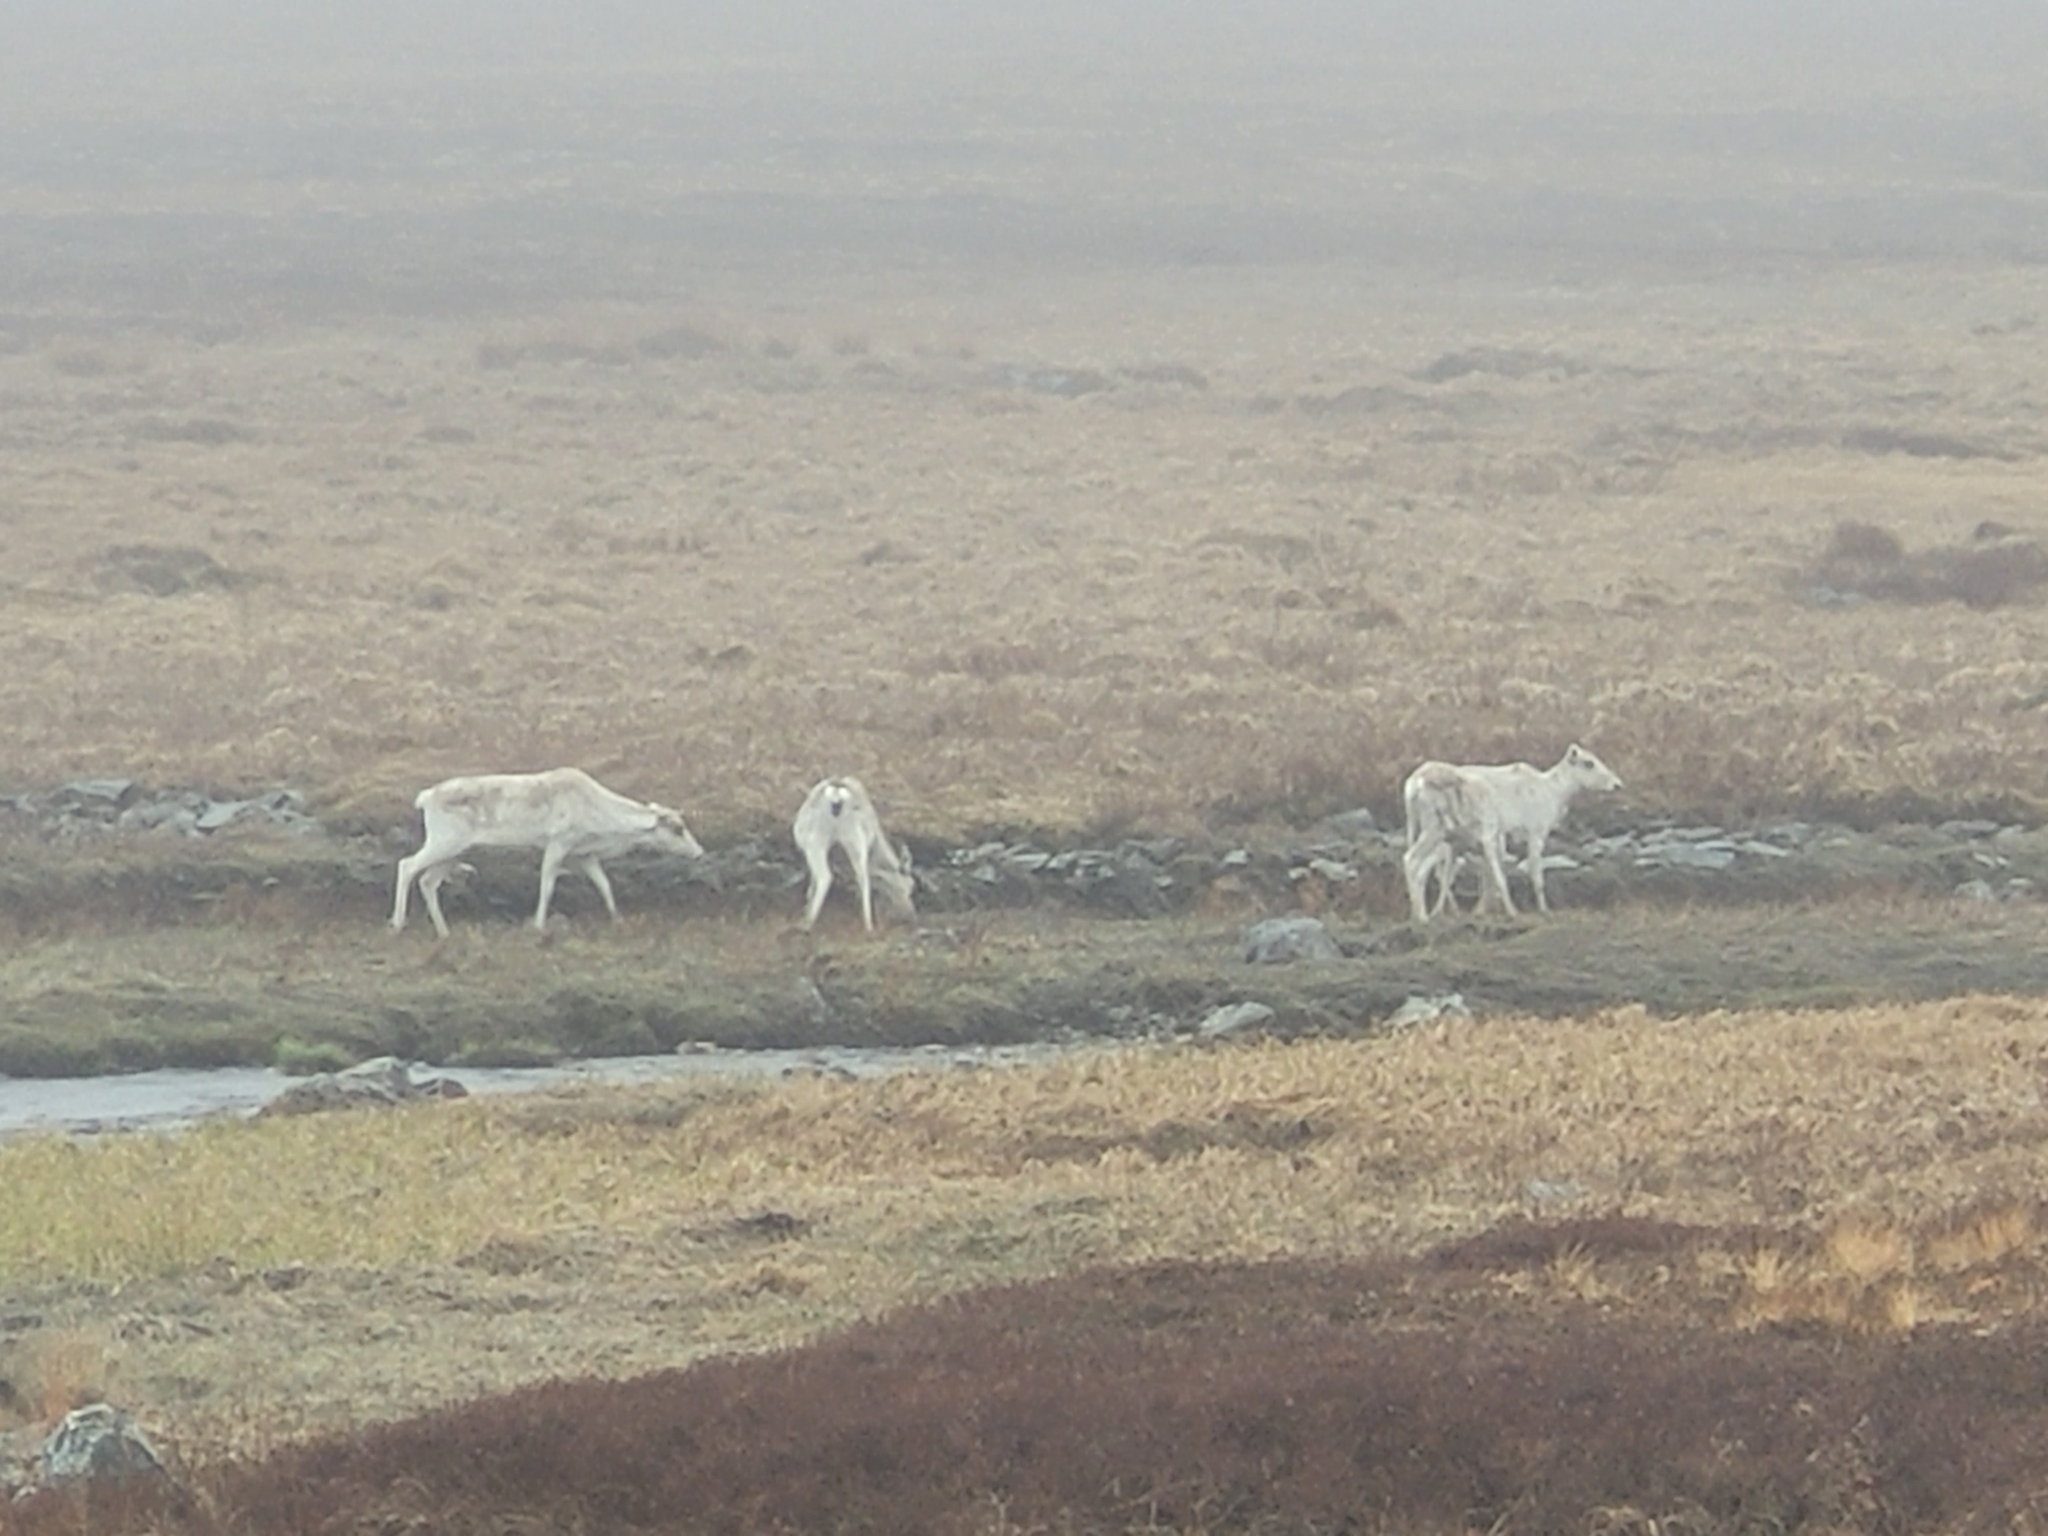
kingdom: Animalia
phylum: Chordata
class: Mammalia
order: Artiodactyla
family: Cervidae
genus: Rangifer
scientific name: Rangifer tarandus
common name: Reindeer
